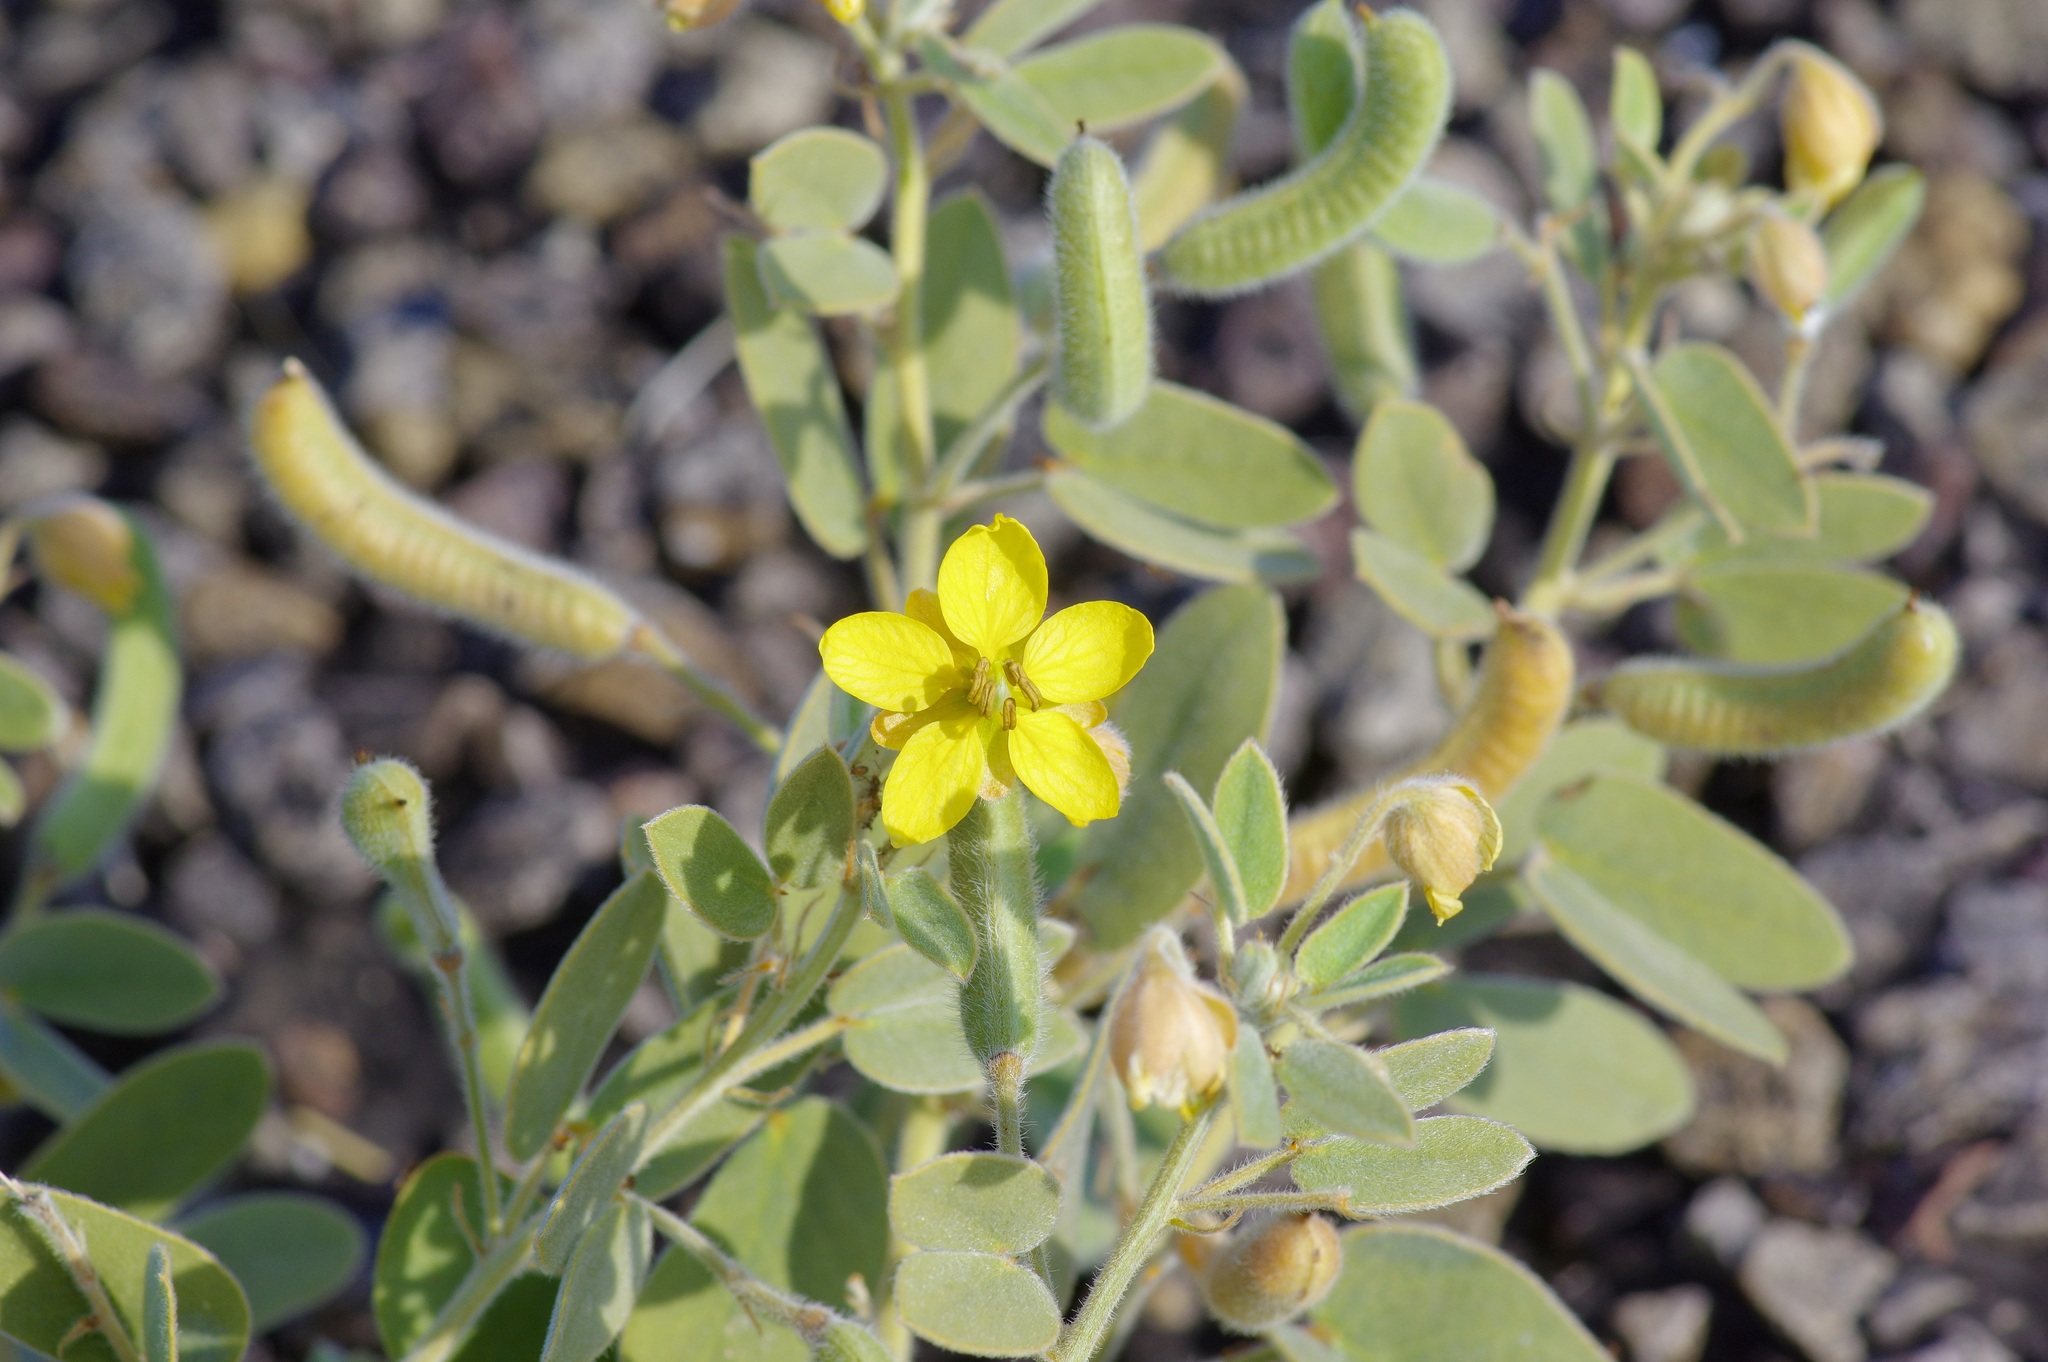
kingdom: Plantae
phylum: Tracheophyta
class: Magnoliopsida
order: Fabales
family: Fabaceae
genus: Senna
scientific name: Senna bauhinioides
